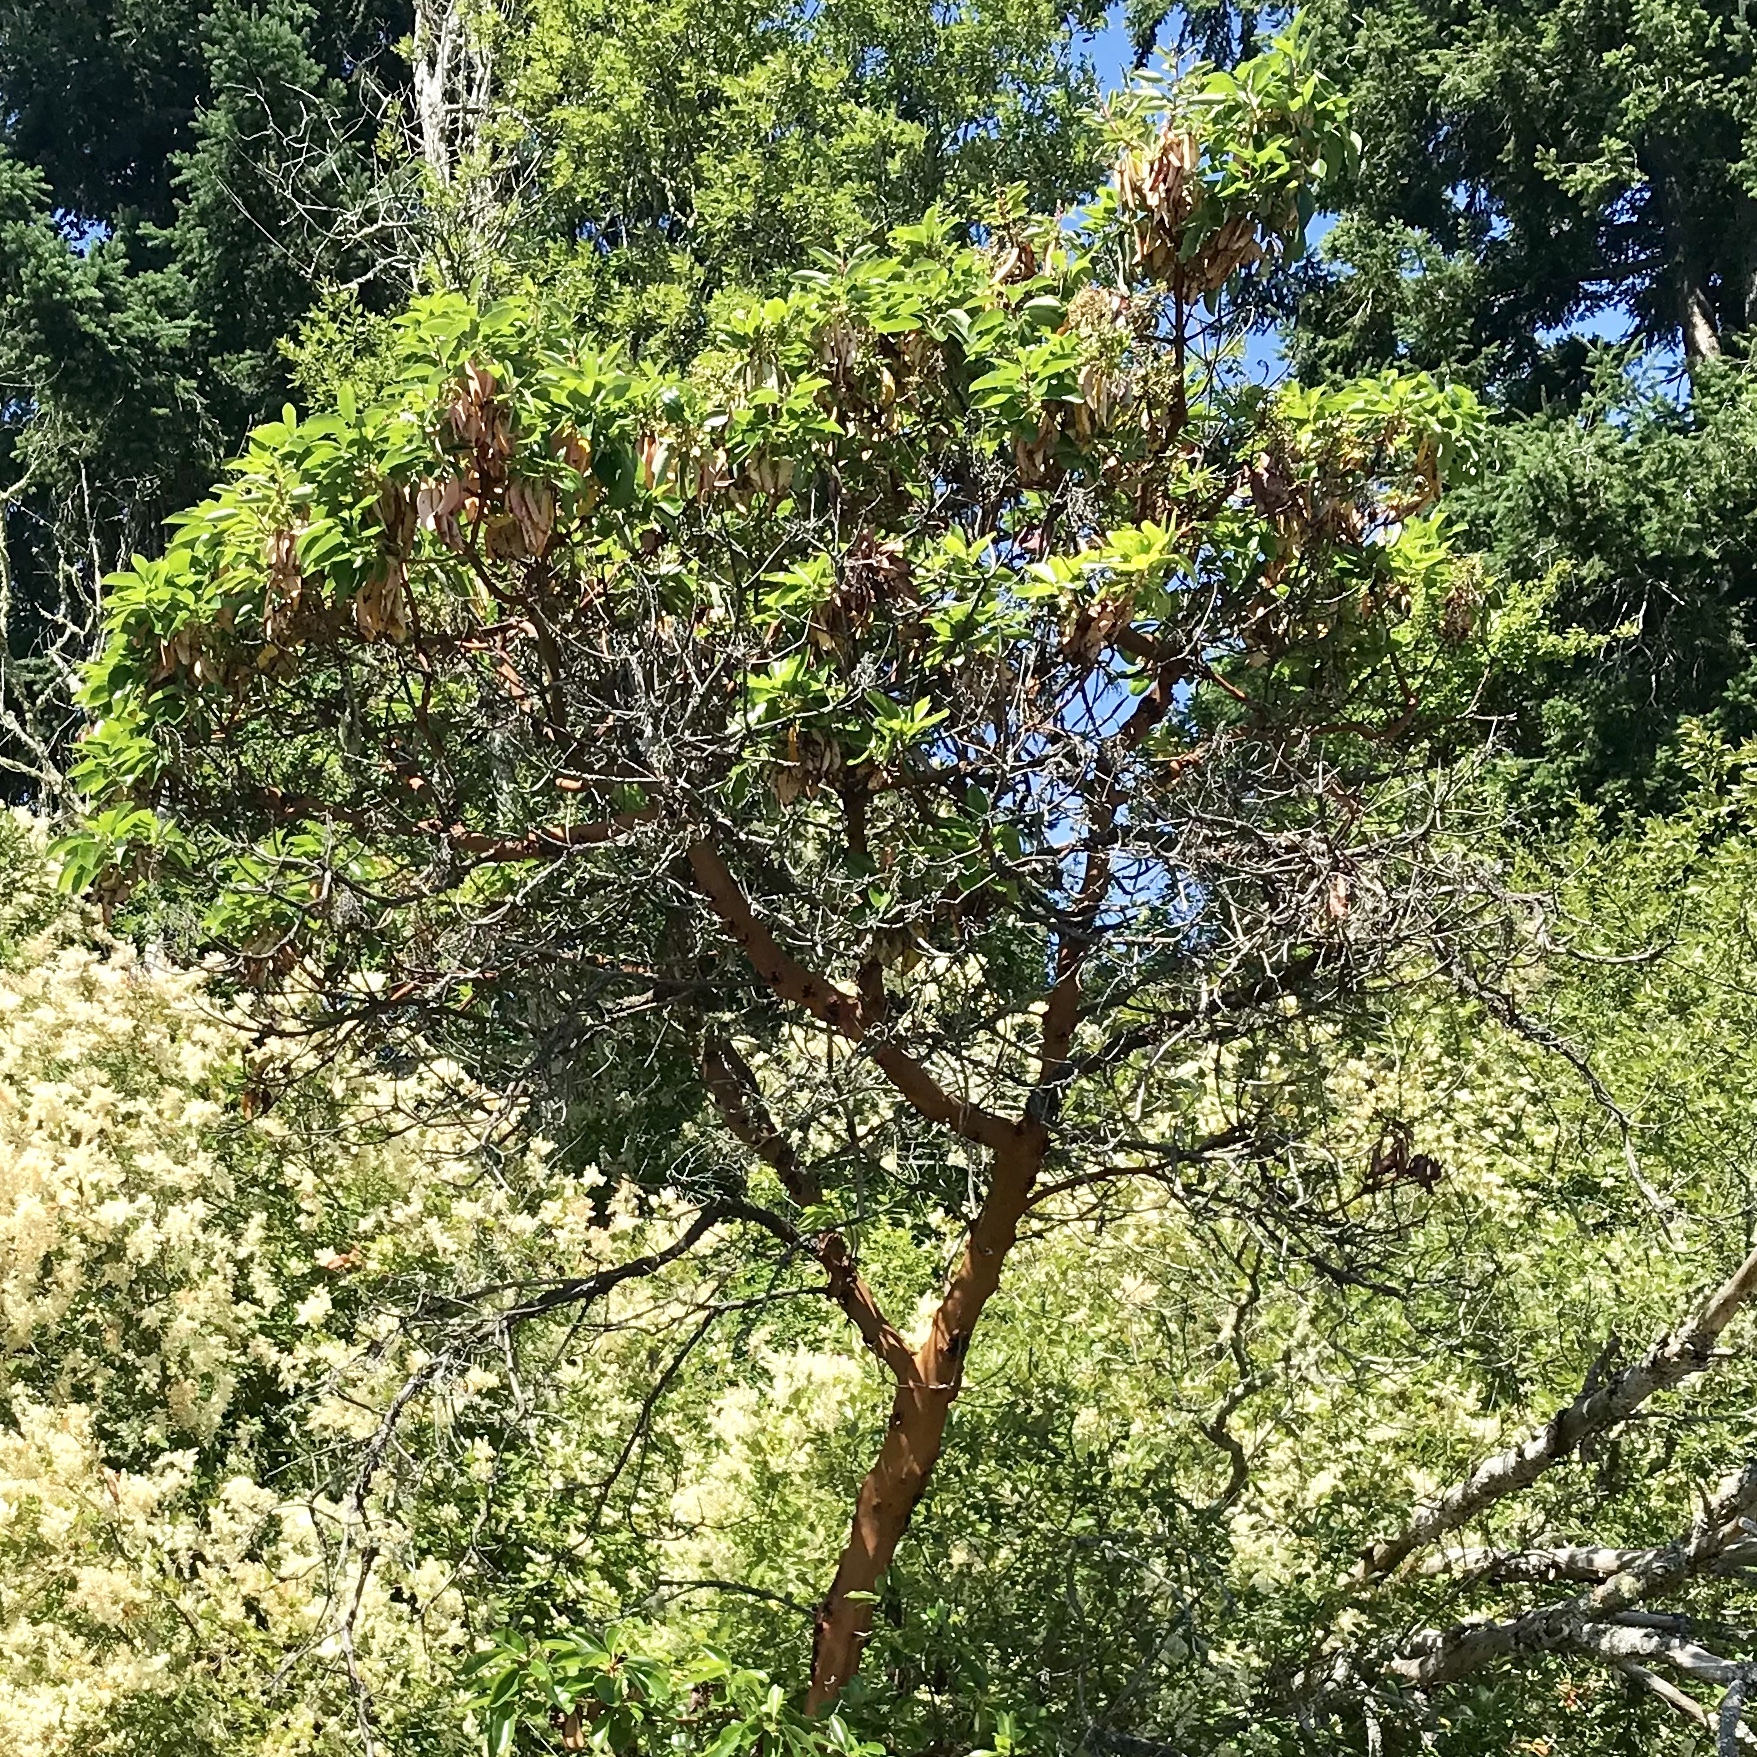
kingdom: Plantae
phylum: Tracheophyta
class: Magnoliopsida
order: Ericales
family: Ericaceae
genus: Arbutus
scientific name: Arbutus menziesii
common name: Pacific madrone
